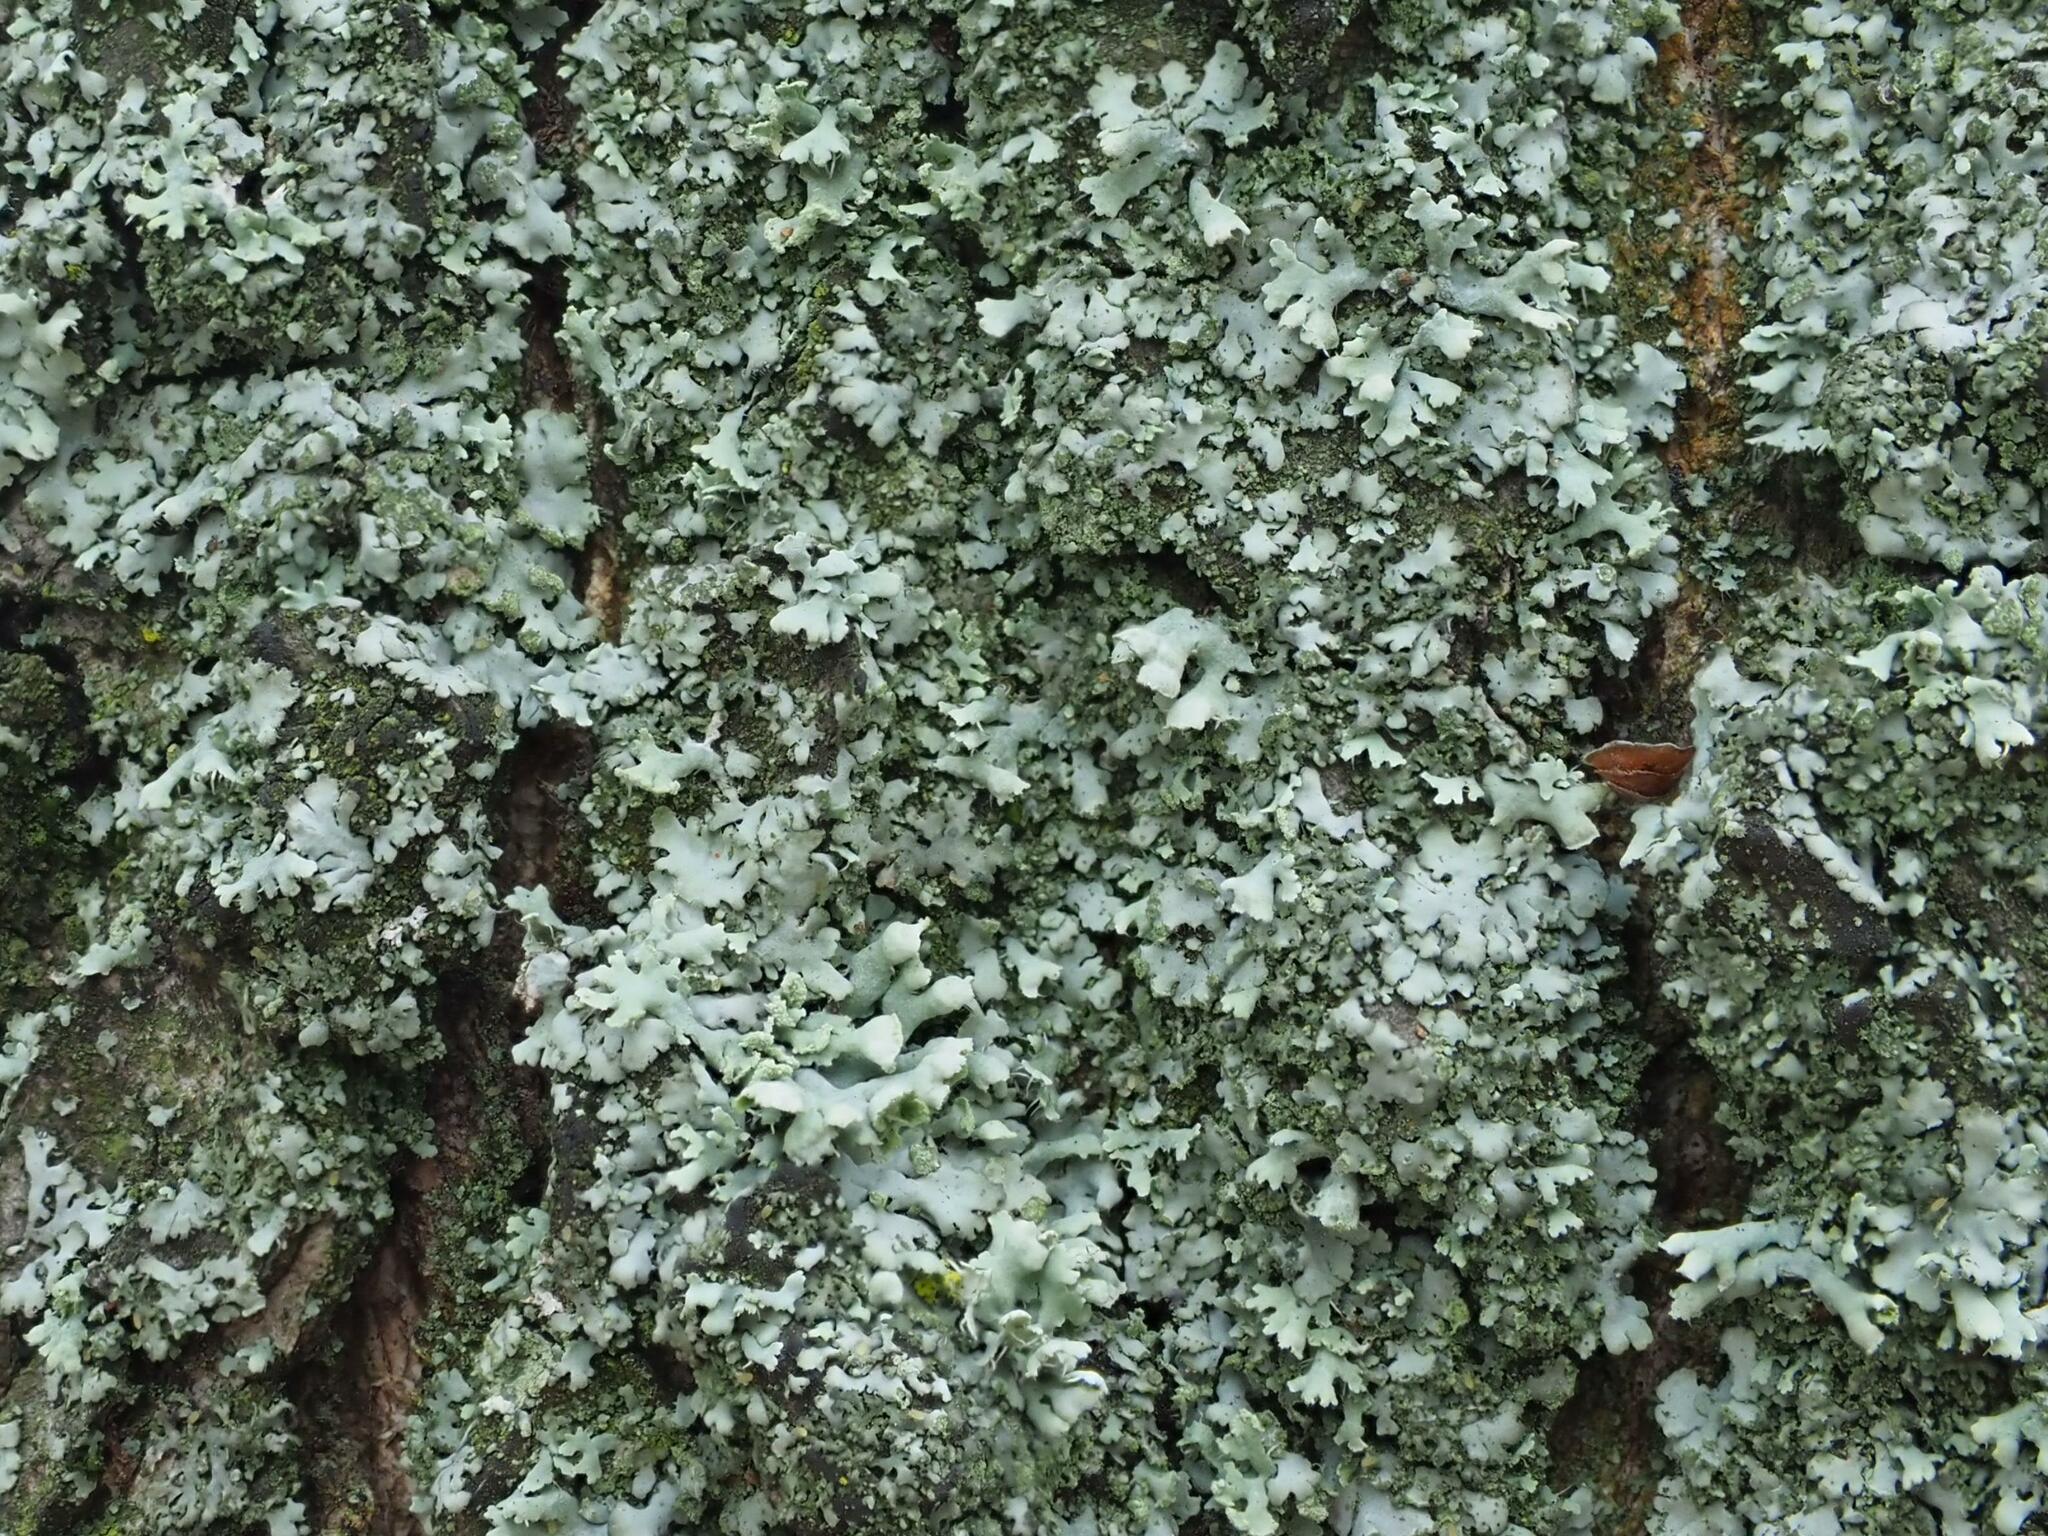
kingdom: Fungi
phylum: Ascomycota
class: Lecanoromycetes
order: Caliciales
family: Physciaceae
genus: Physcia
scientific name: Physcia adscendens
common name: Hooded rosette lichen
